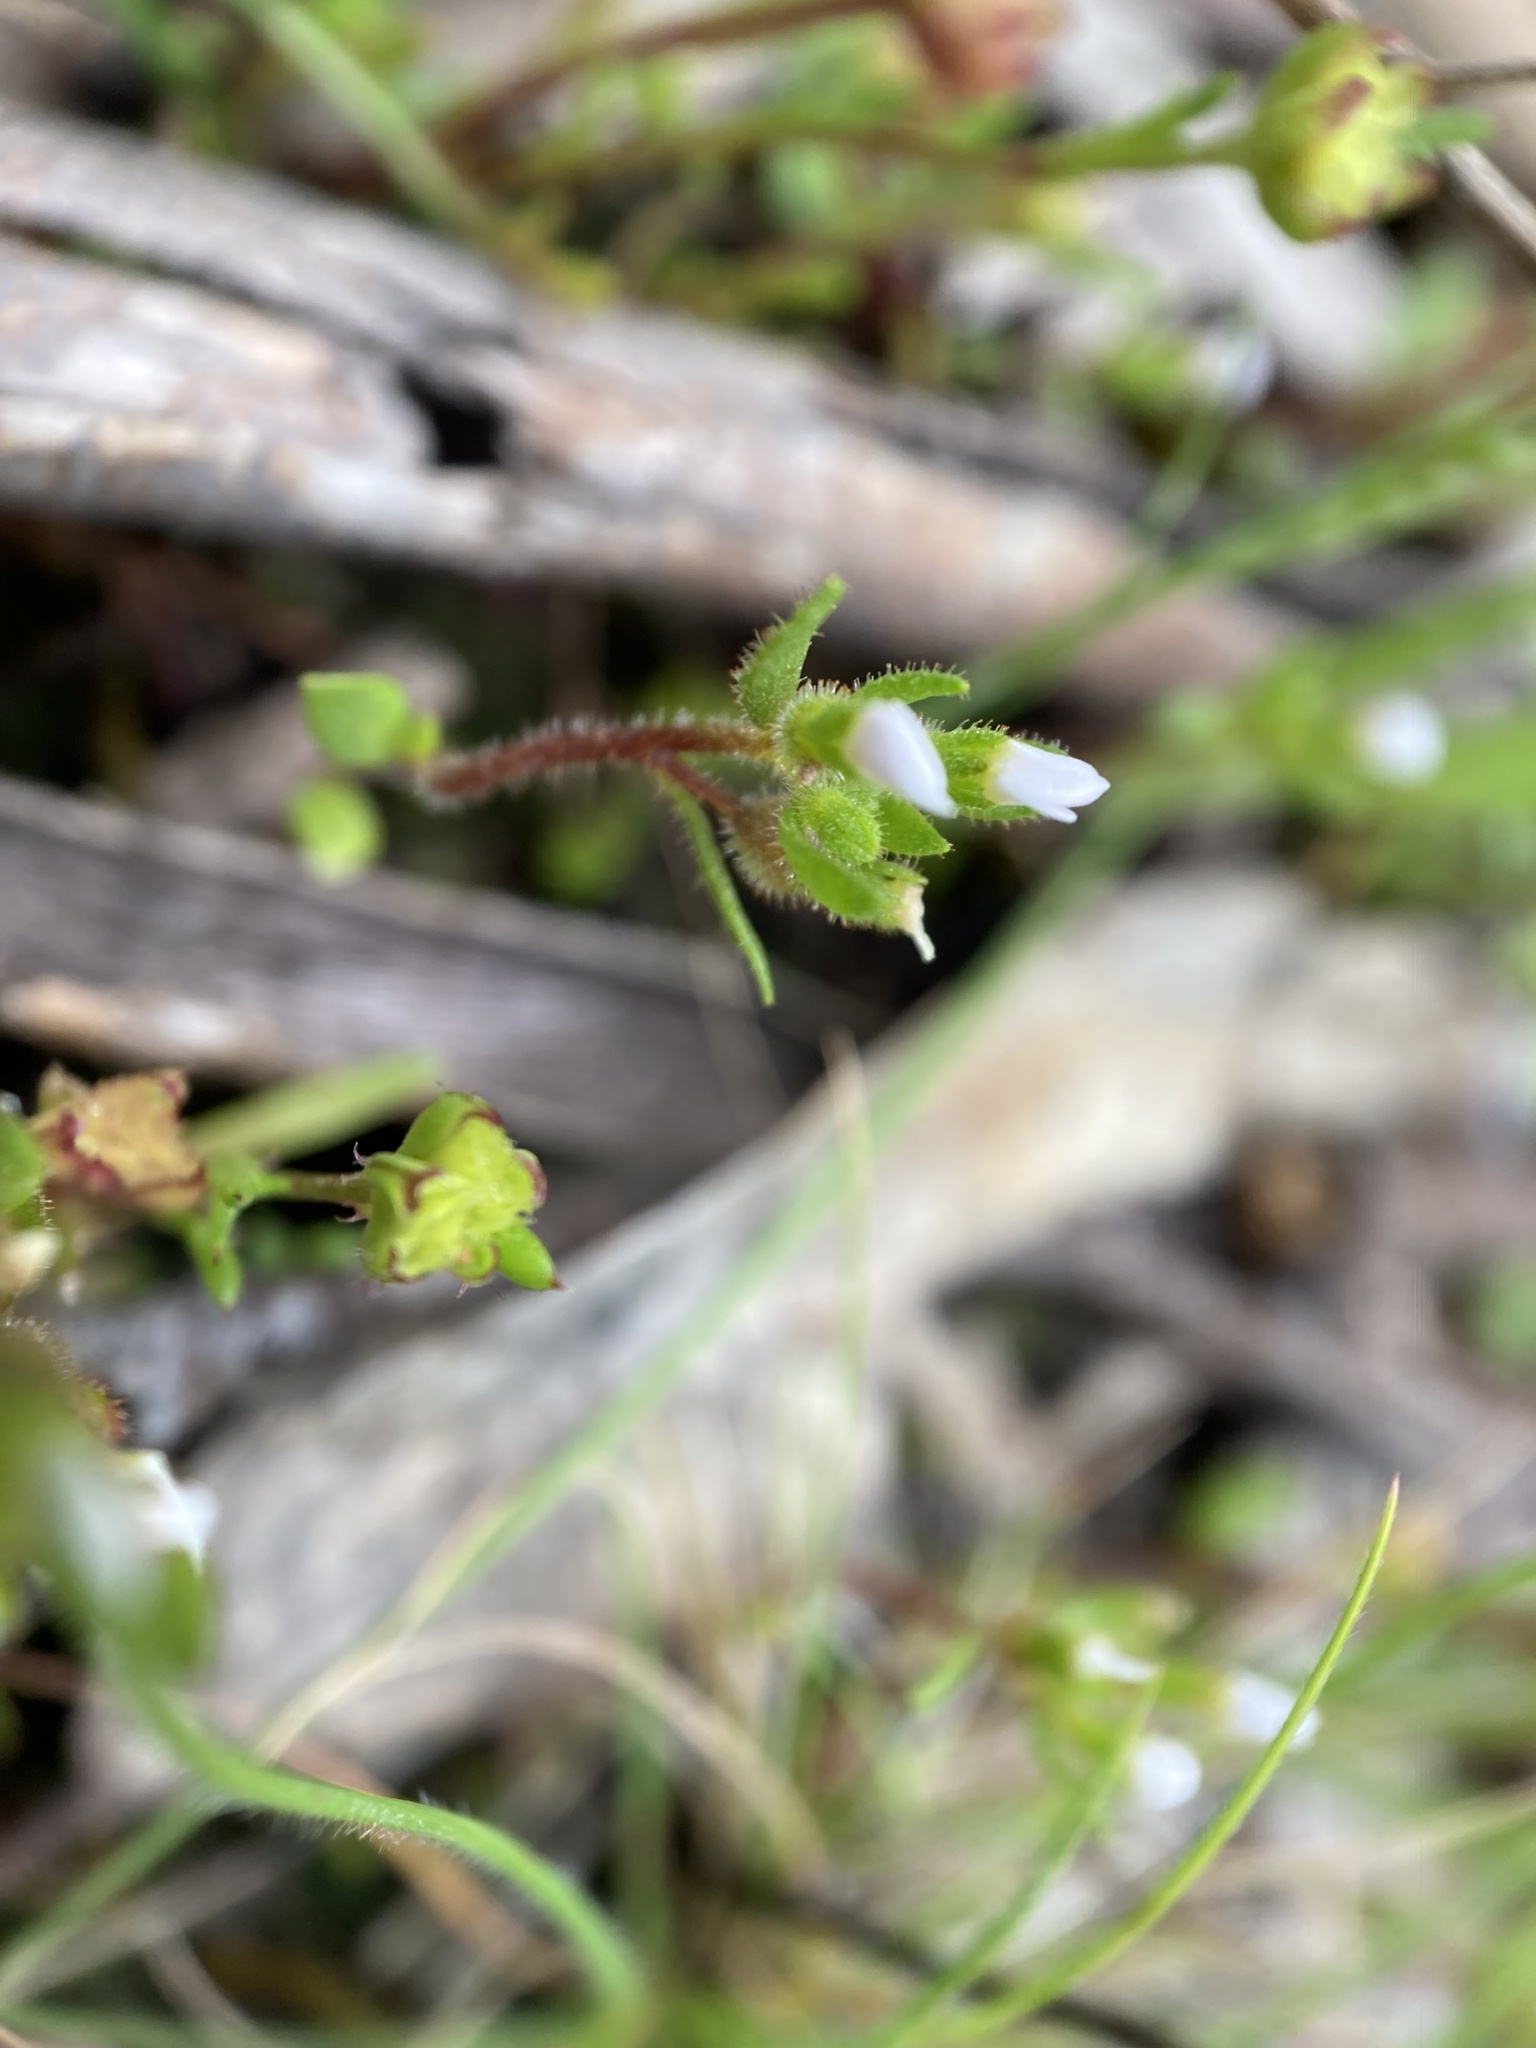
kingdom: Plantae
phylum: Tracheophyta
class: Magnoliopsida
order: Asterales
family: Asteraceae
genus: Siloxerus
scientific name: Siloxerus multiflorus
